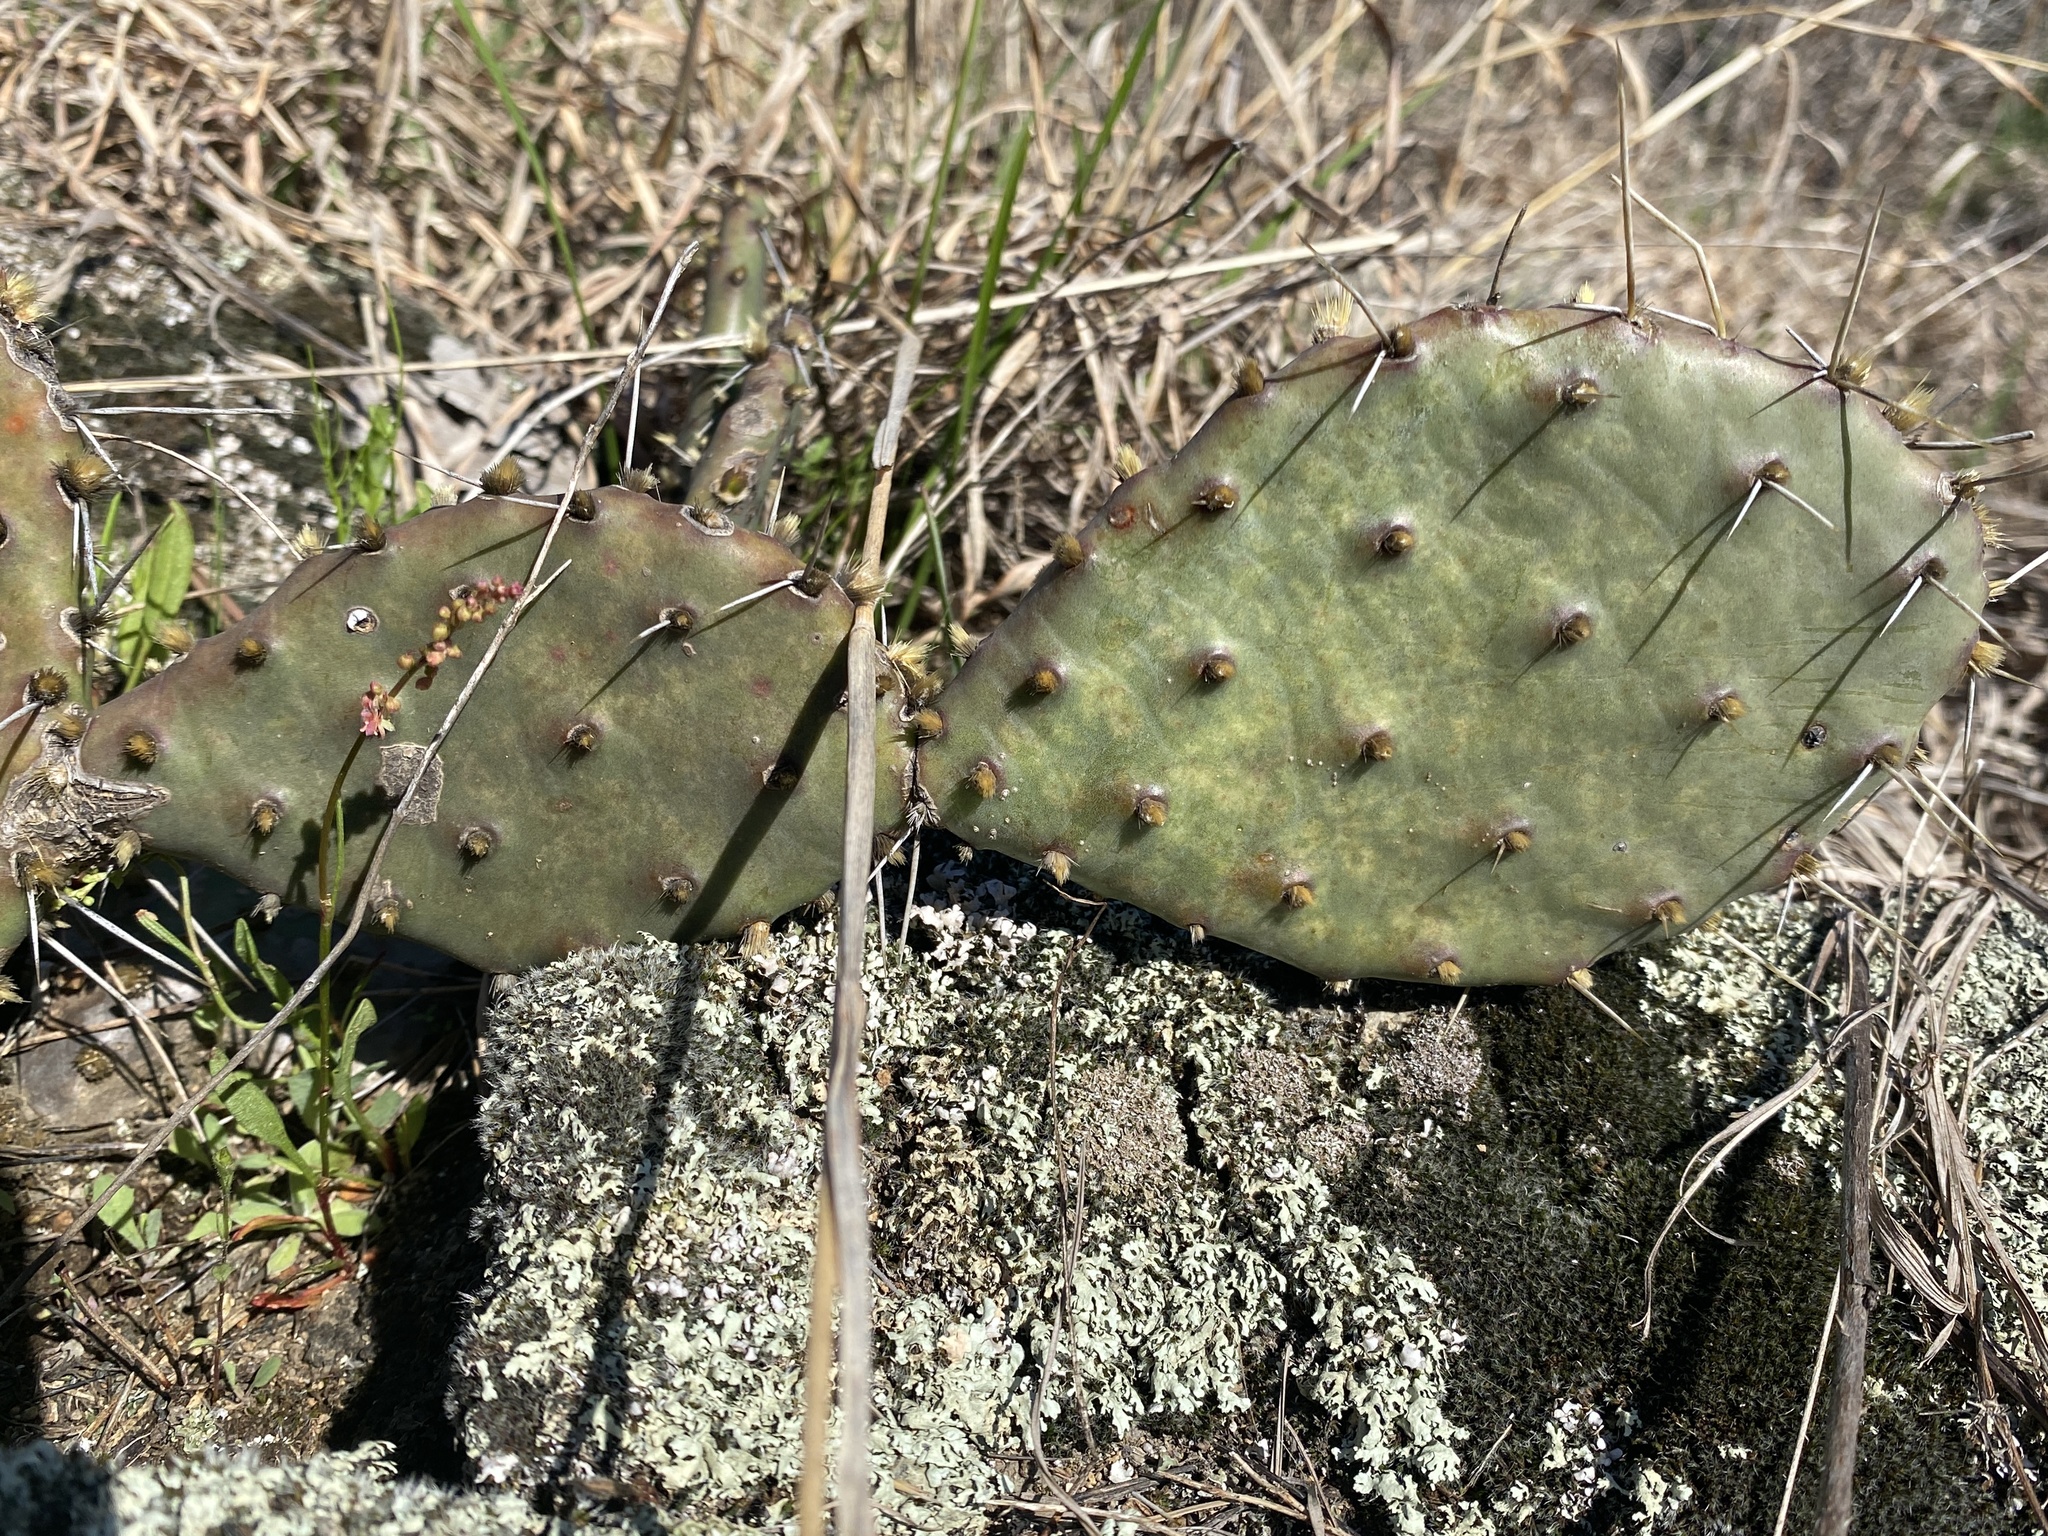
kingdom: Plantae
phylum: Tracheophyta
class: Magnoliopsida
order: Caryophyllales
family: Cactaceae
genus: Opuntia
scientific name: Opuntia macrorhiza
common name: Grassland pricklypear
